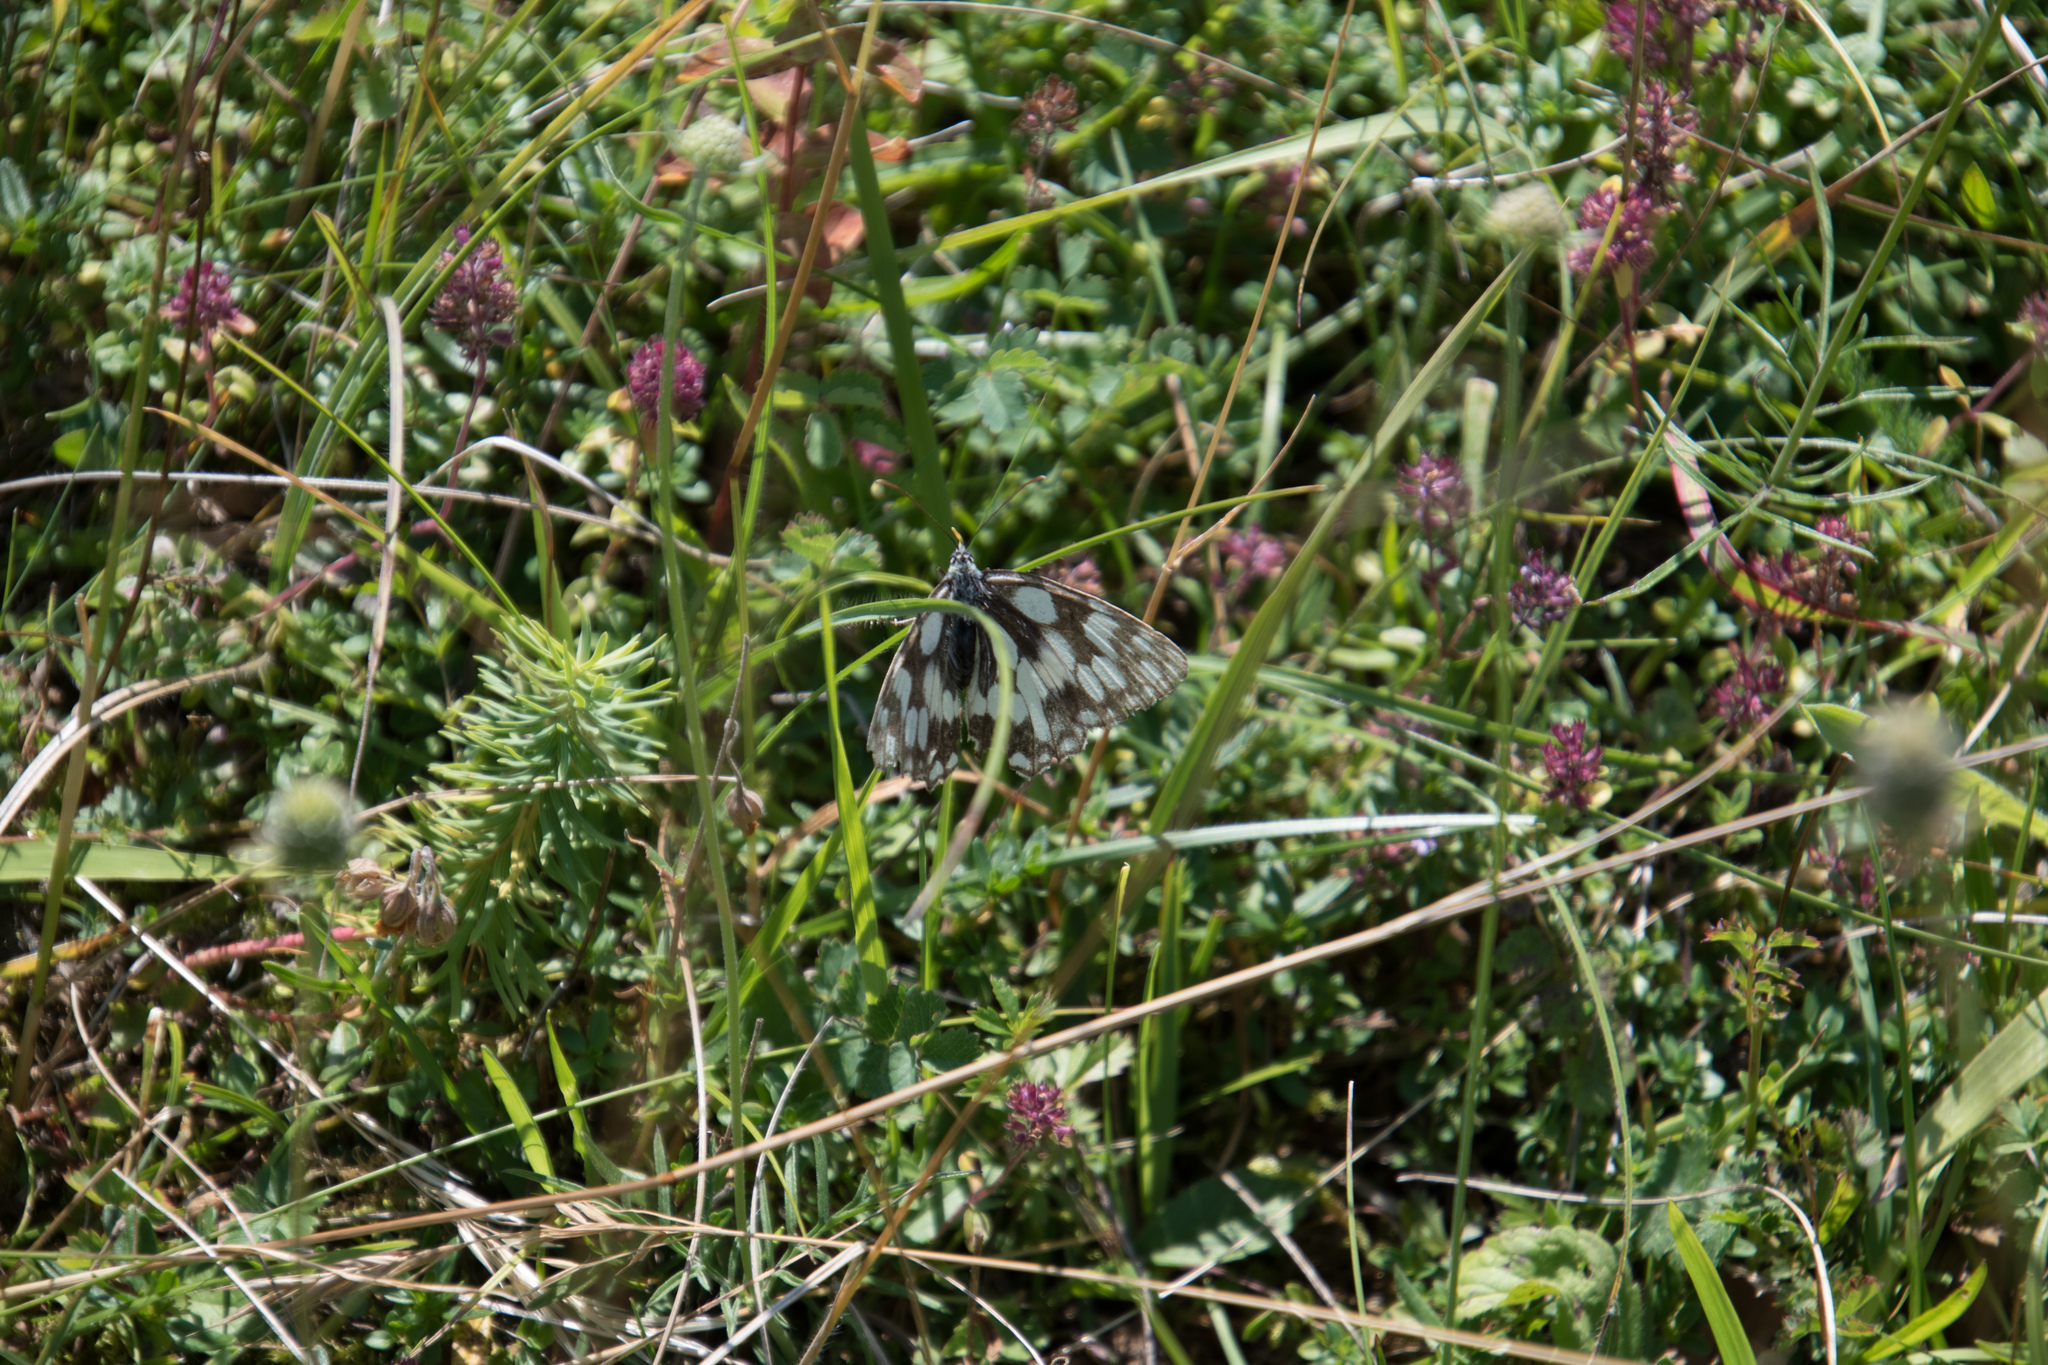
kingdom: Animalia
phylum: Arthropoda
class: Insecta
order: Lepidoptera
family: Nymphalidae
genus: Melanargia
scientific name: Melanargia galathea
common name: Marbled white
